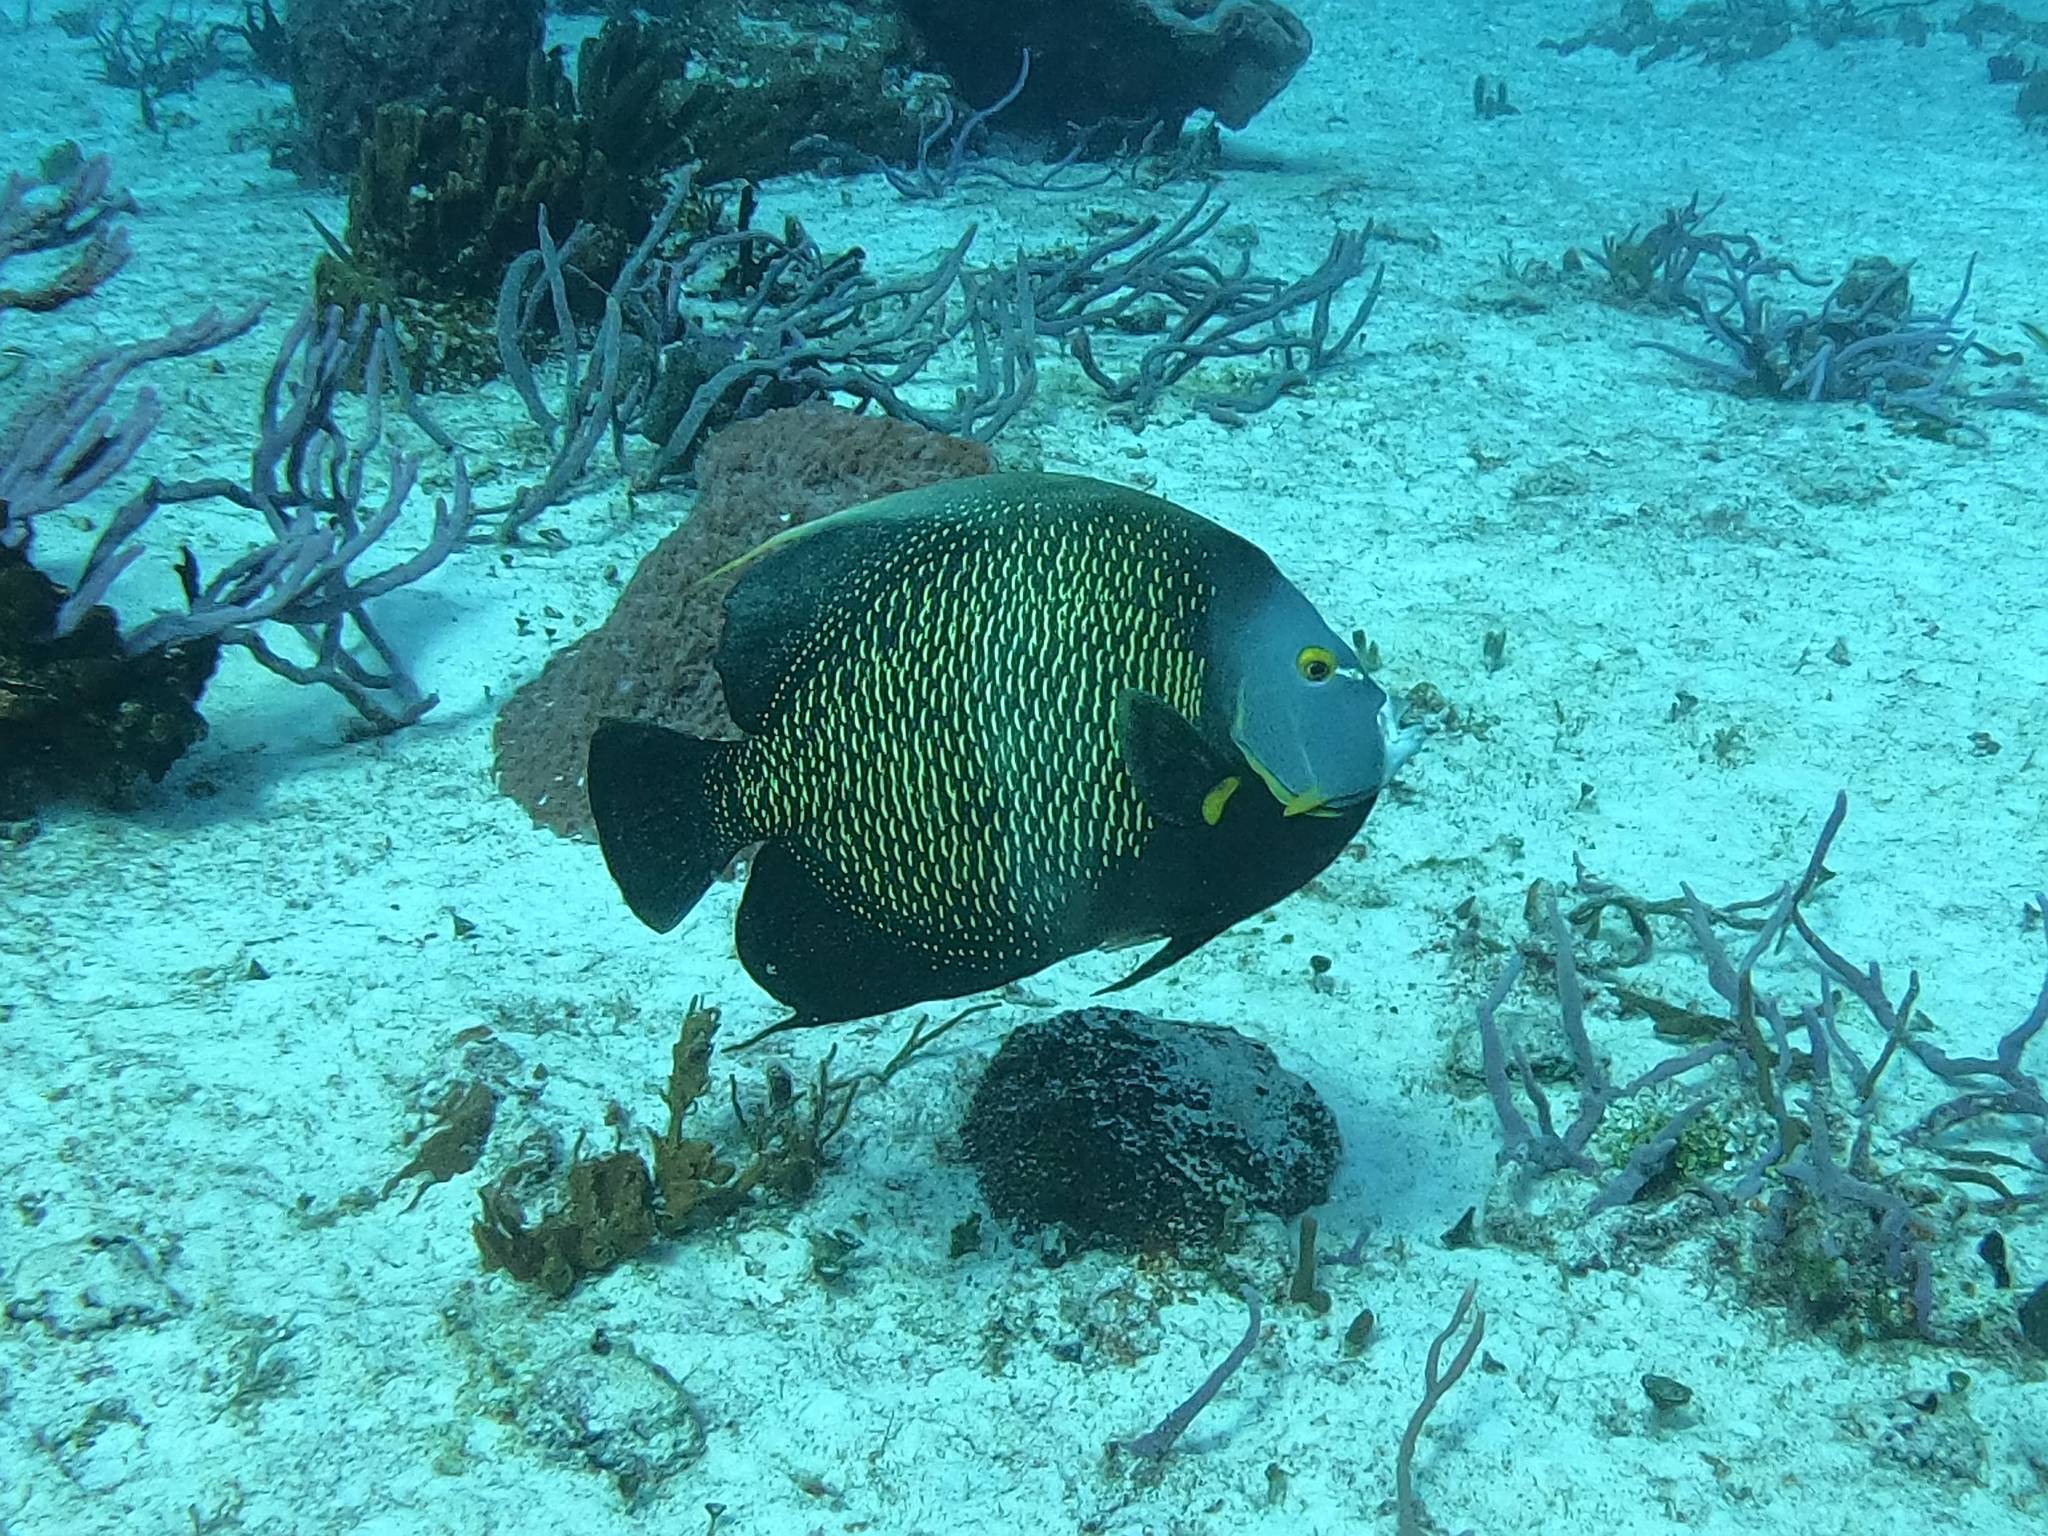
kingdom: Animalia
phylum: Chordata
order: Perciformes
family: Pomacanthidae
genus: Pomacanthus
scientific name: Pomacanthus paru
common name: French angelfish
